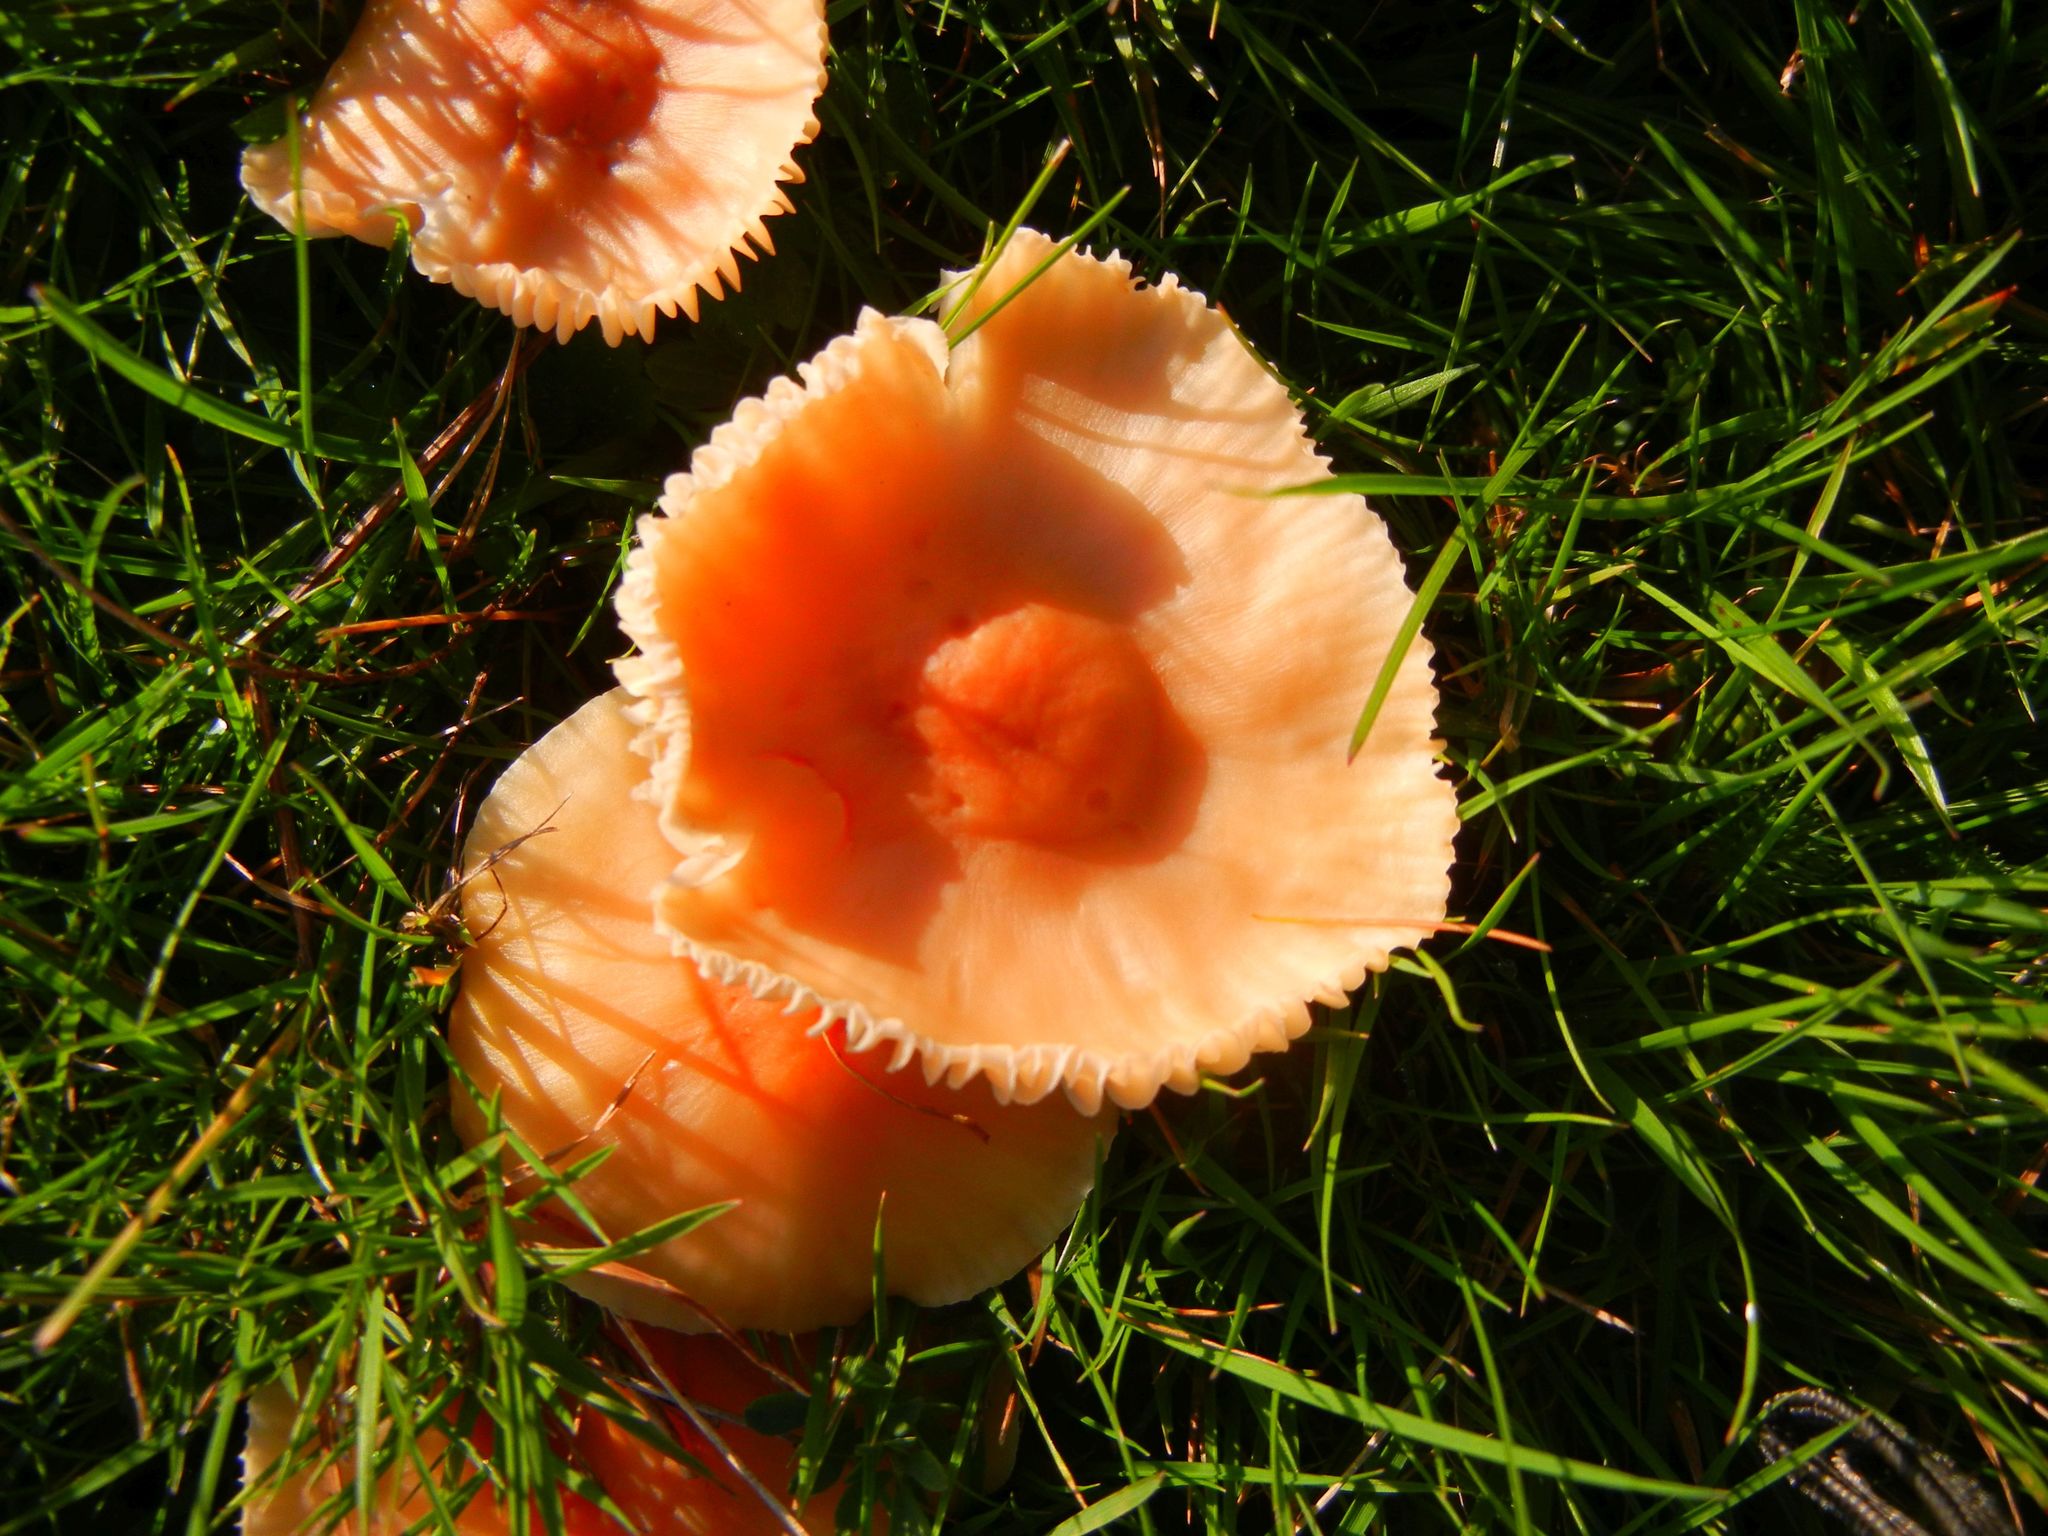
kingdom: Fungi
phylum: Basidiomycota
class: Agaricomycetes
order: Agaricales
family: Hygrophoraceae
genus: Cuphophyllus
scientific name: Cuphophyllus pratensis
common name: Meadow waxcap
